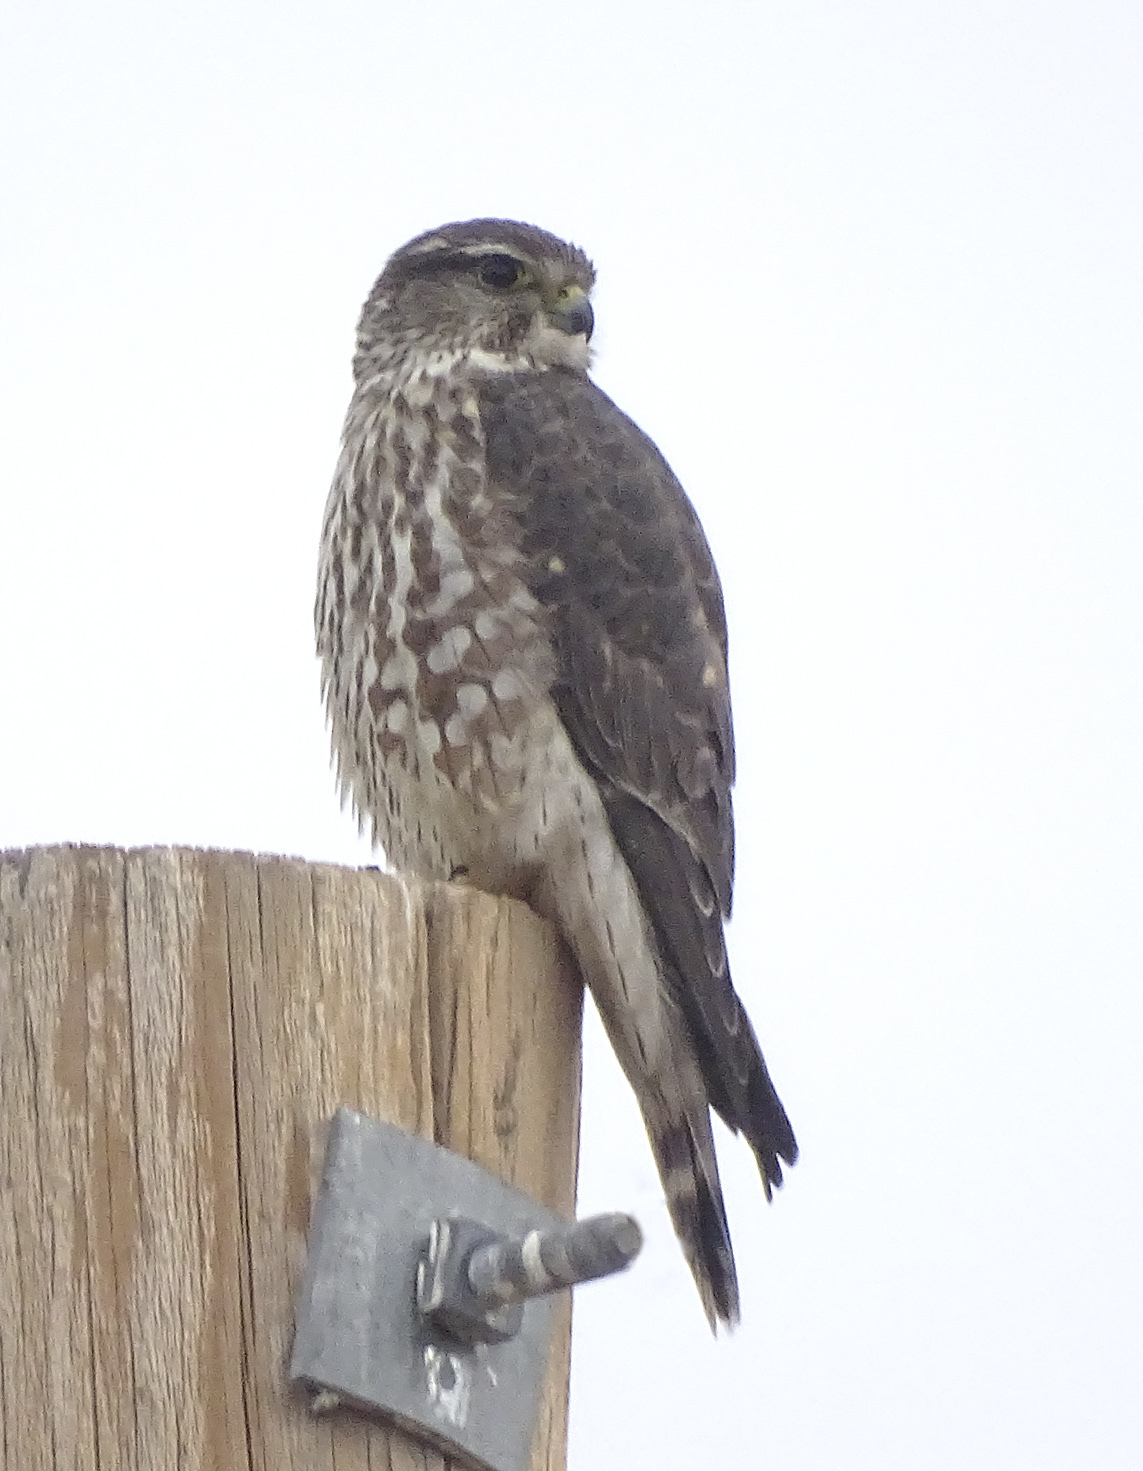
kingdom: Animalia
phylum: Chordata
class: Aves
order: Falconiformes
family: Falconidae
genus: Falco
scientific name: Falco columbarius
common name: Merlin
